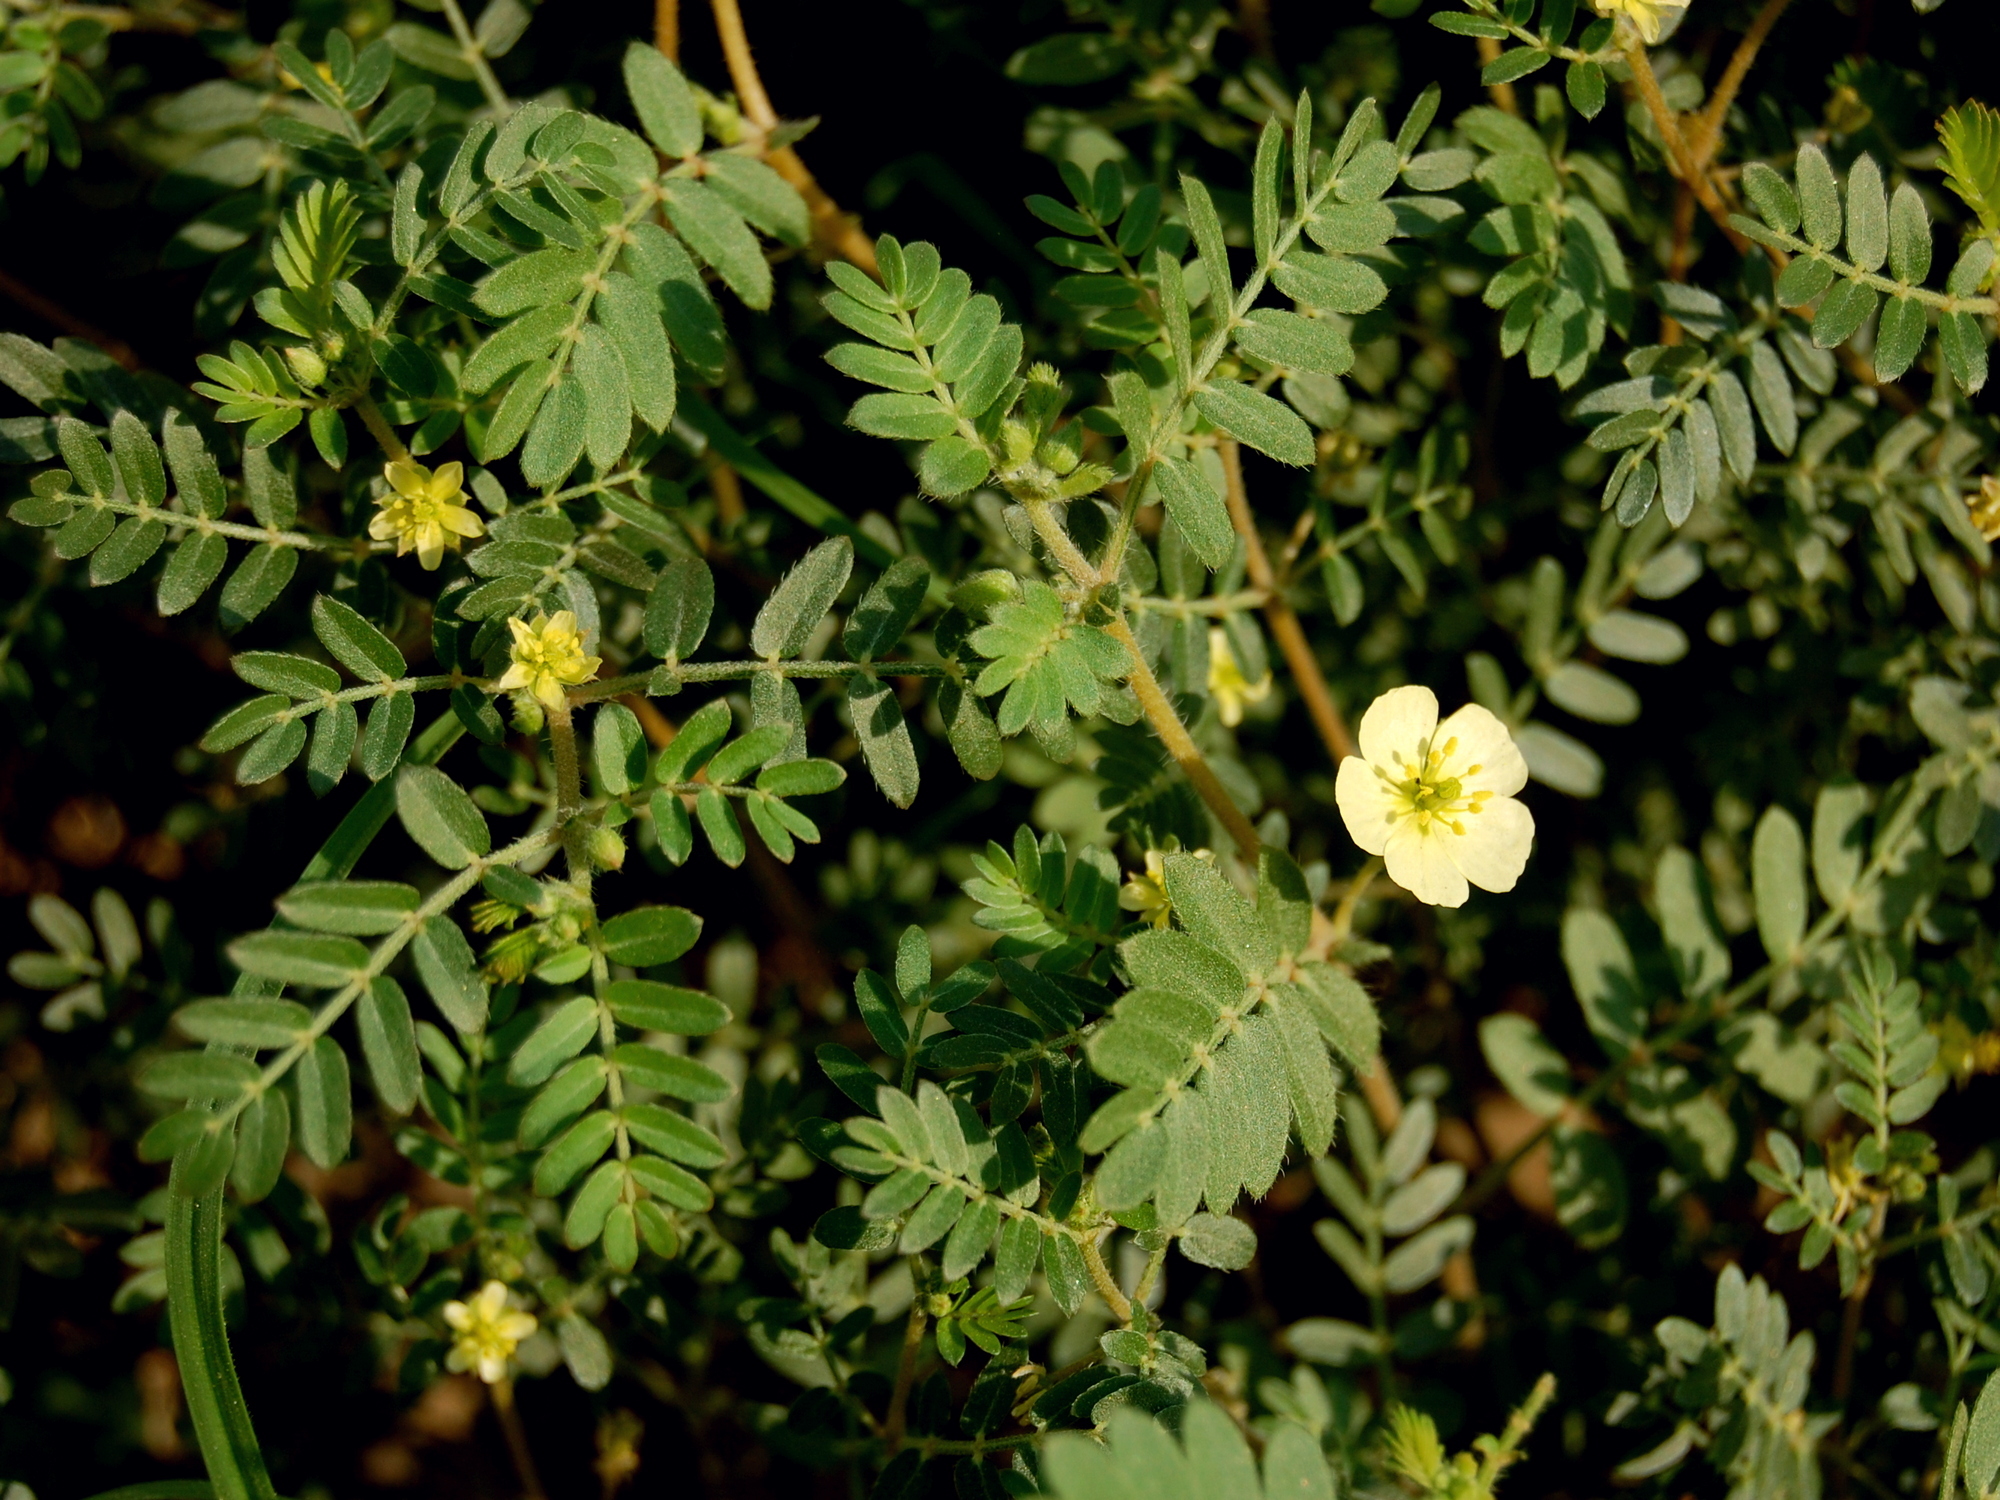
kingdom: Plantae
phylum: Tracheophyta
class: Magnoliopsida
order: Zygophyllales
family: Zygophyllaceae
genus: Tribulus
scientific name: Tribulus terrestris
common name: Puncturevine
